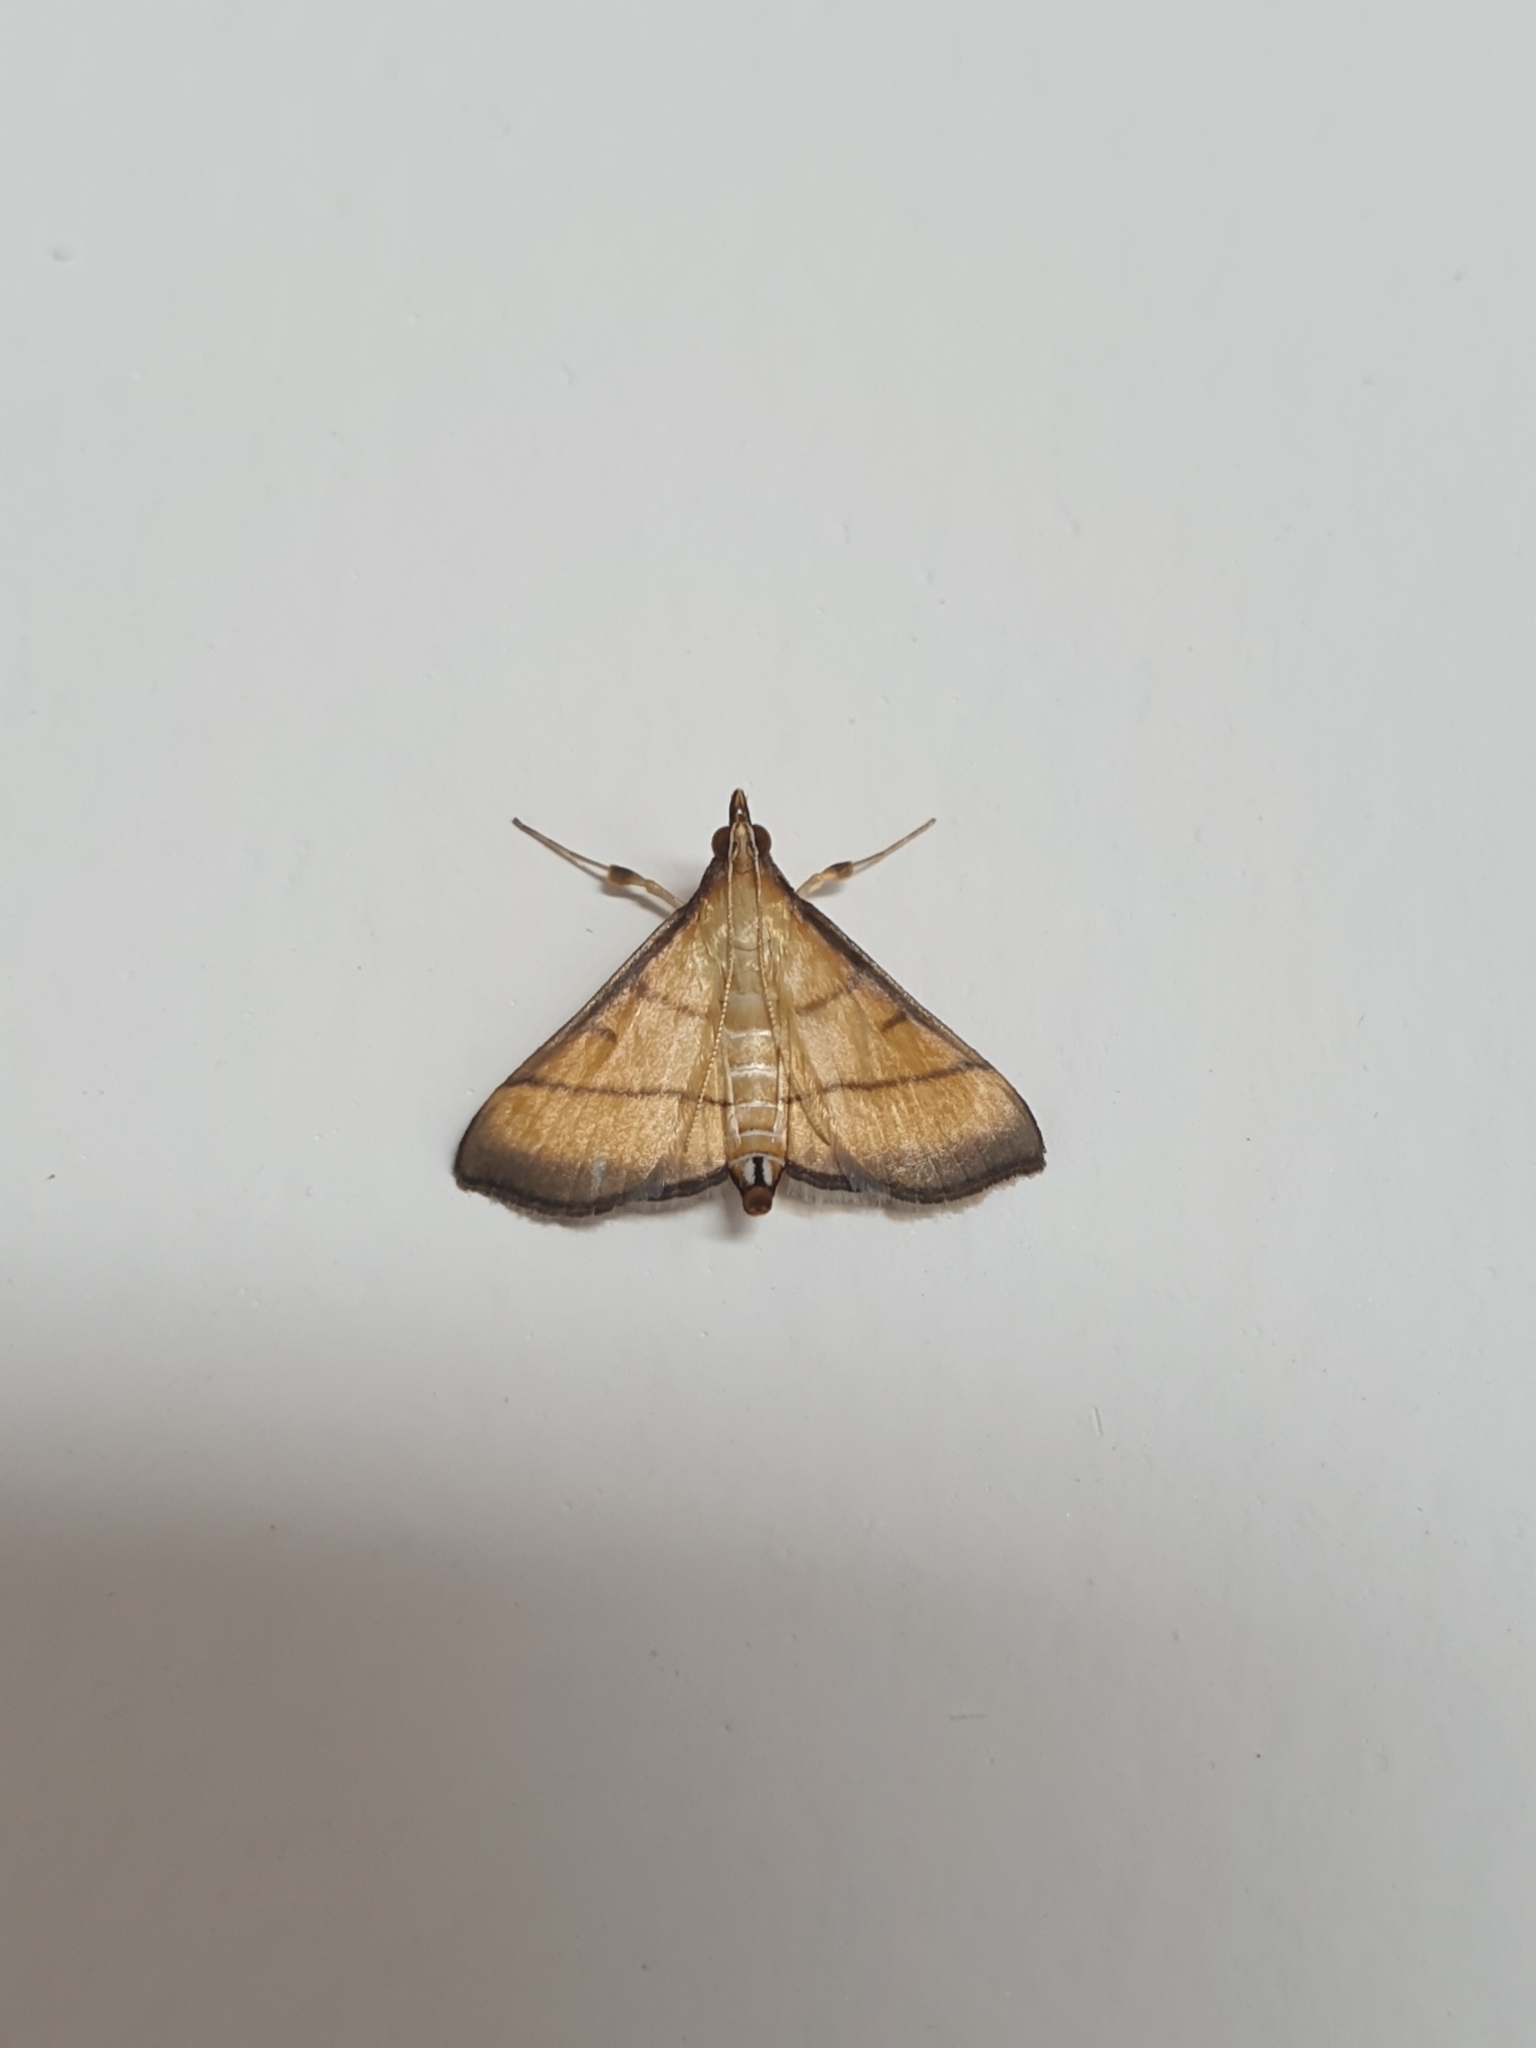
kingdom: Animalia
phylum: Arthropoda
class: Insecta
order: Lepidoptera
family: Crambidae
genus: Cnaphalocrocis
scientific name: Cnaphalocrocis medinalis
